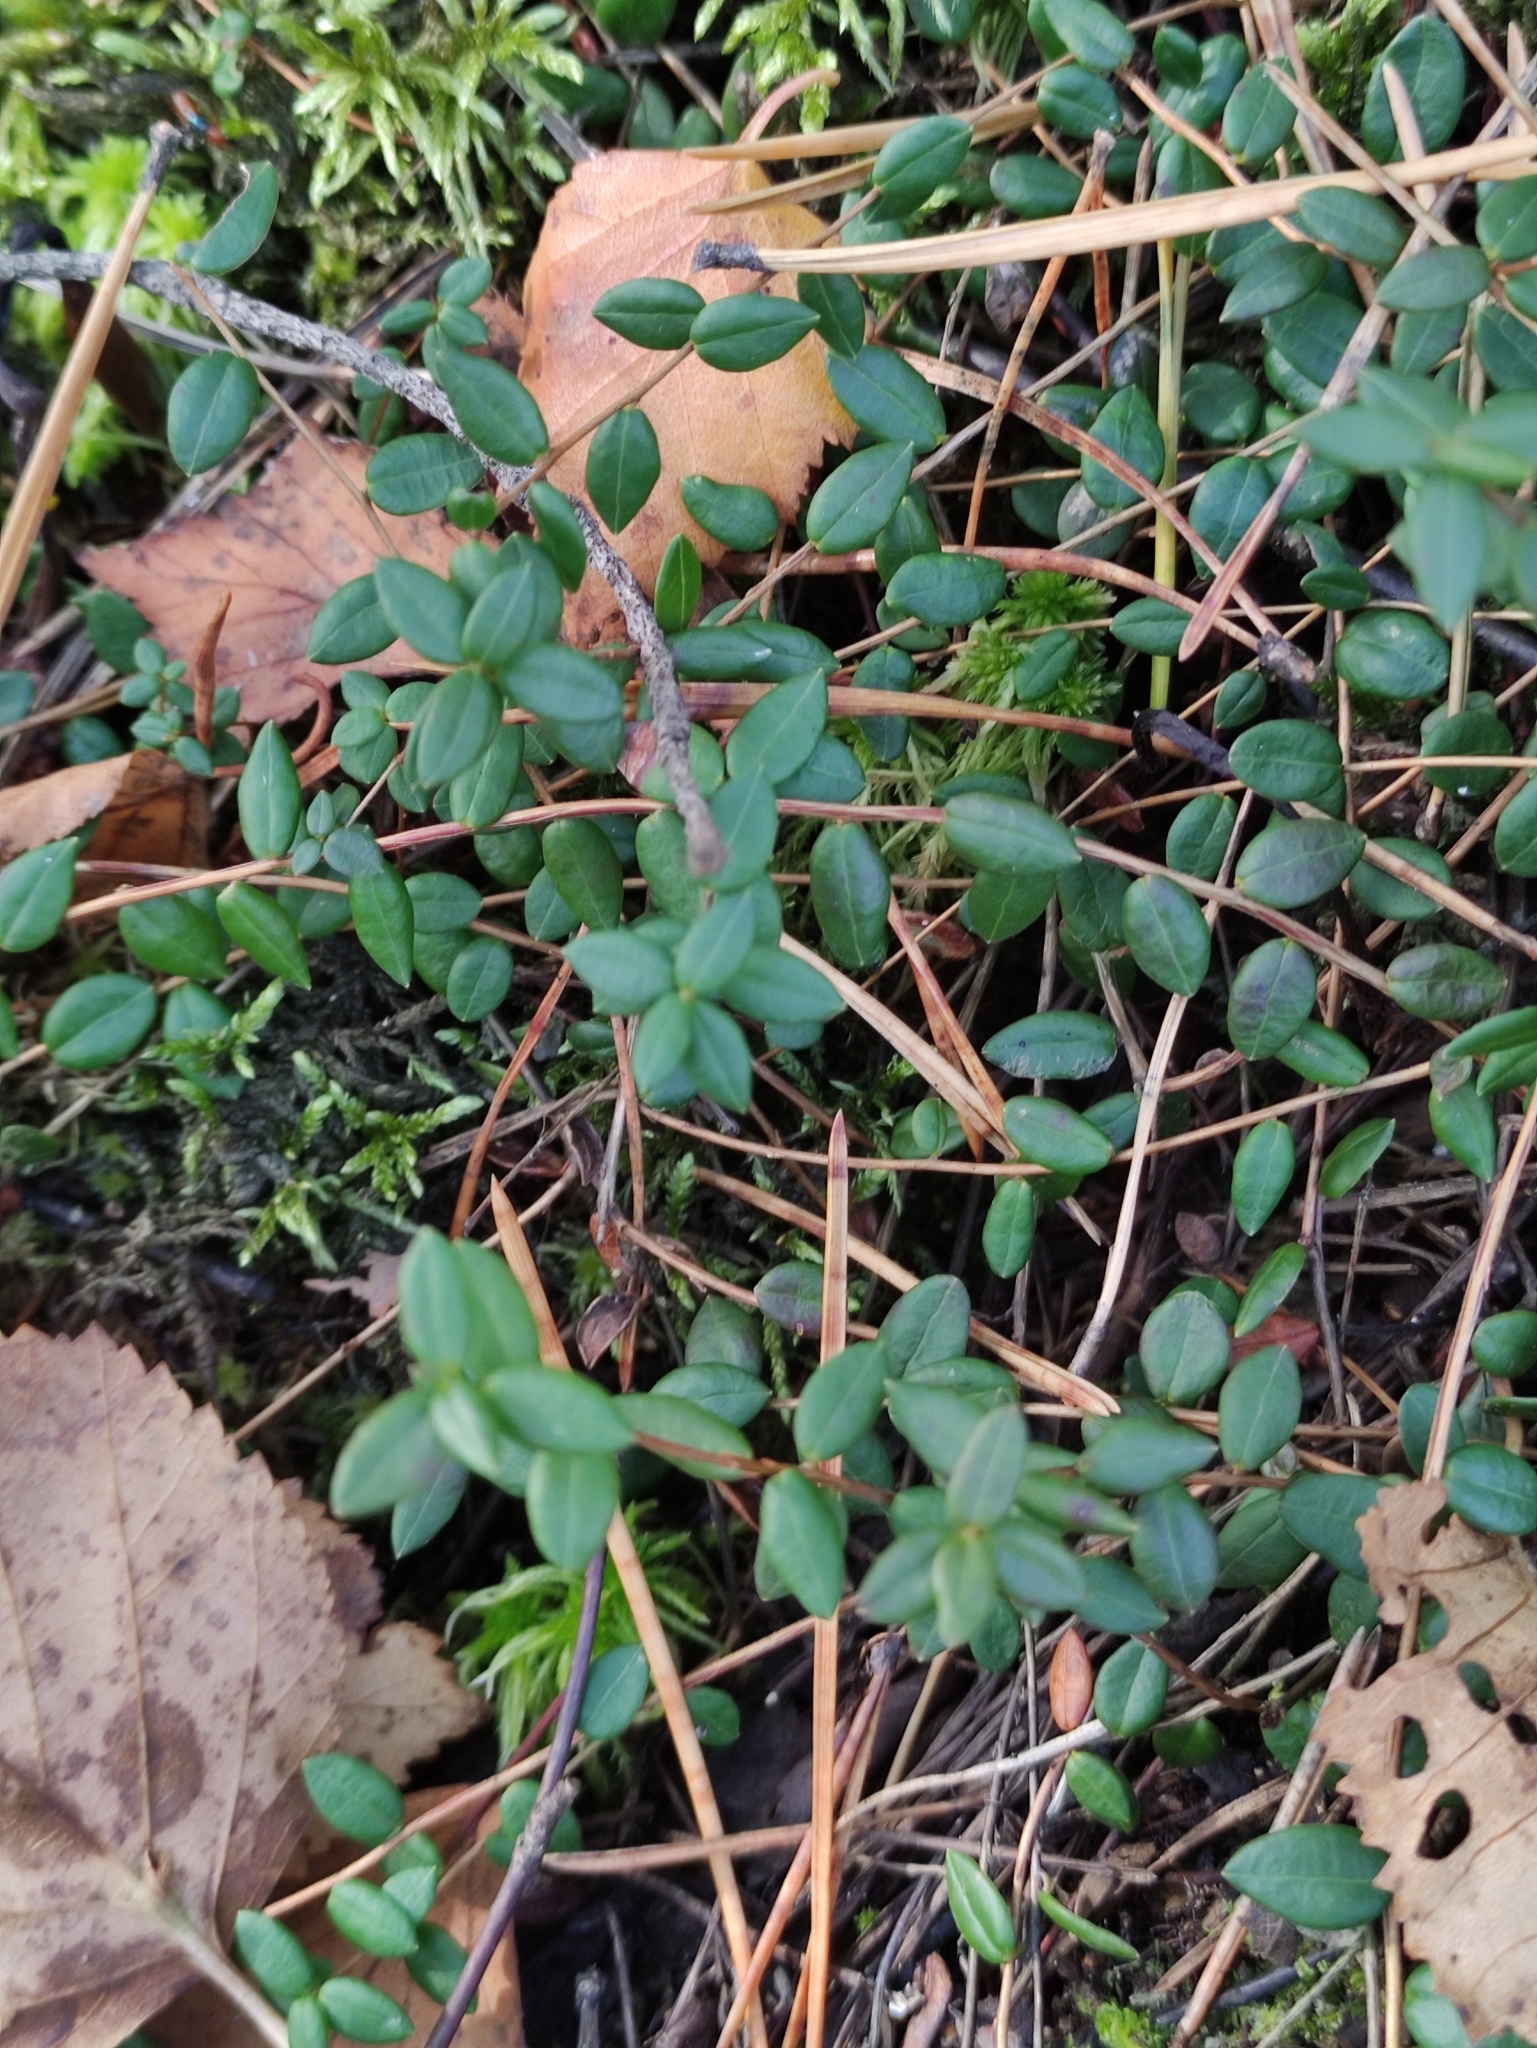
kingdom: Plantae
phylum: Tracheophyta
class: Magnoliopsida
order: Ericales
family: Ericaceae
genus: Vaccinium
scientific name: Vaccinium oxycoccos
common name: Cranberry
